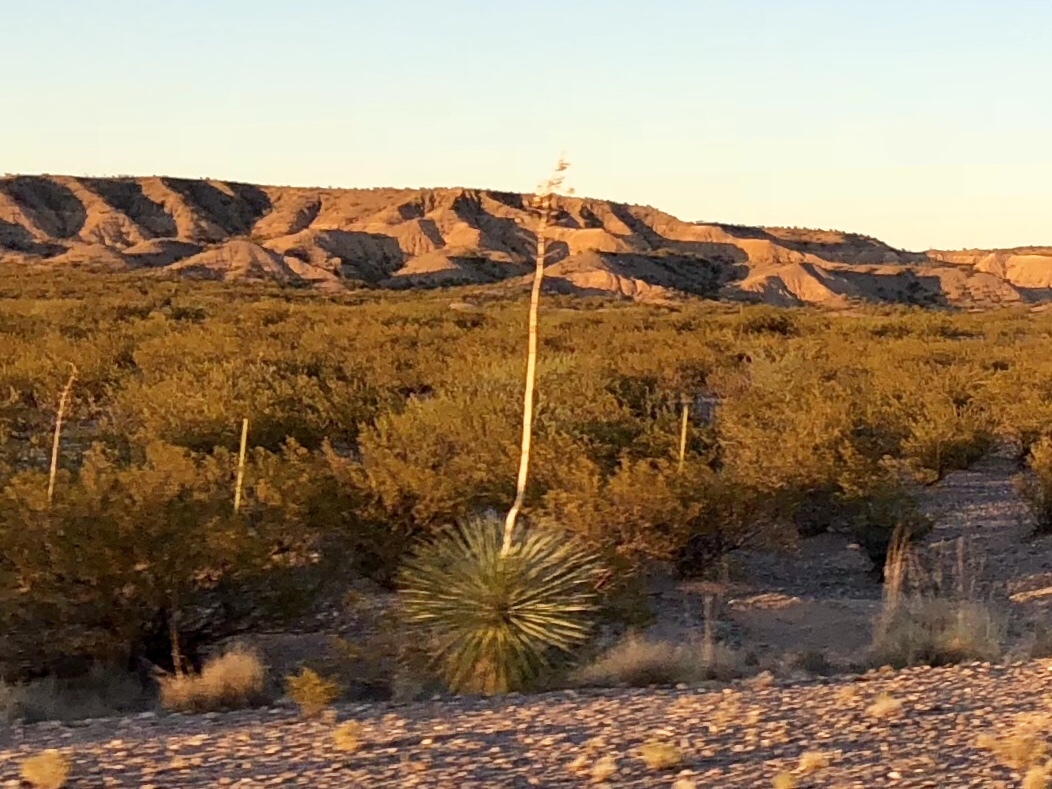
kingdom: Plantae
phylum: Tracheophyta
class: Liliopsida
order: Asparagales
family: Asparagaceae
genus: Yucca
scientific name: Yucca elata
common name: Palmella
